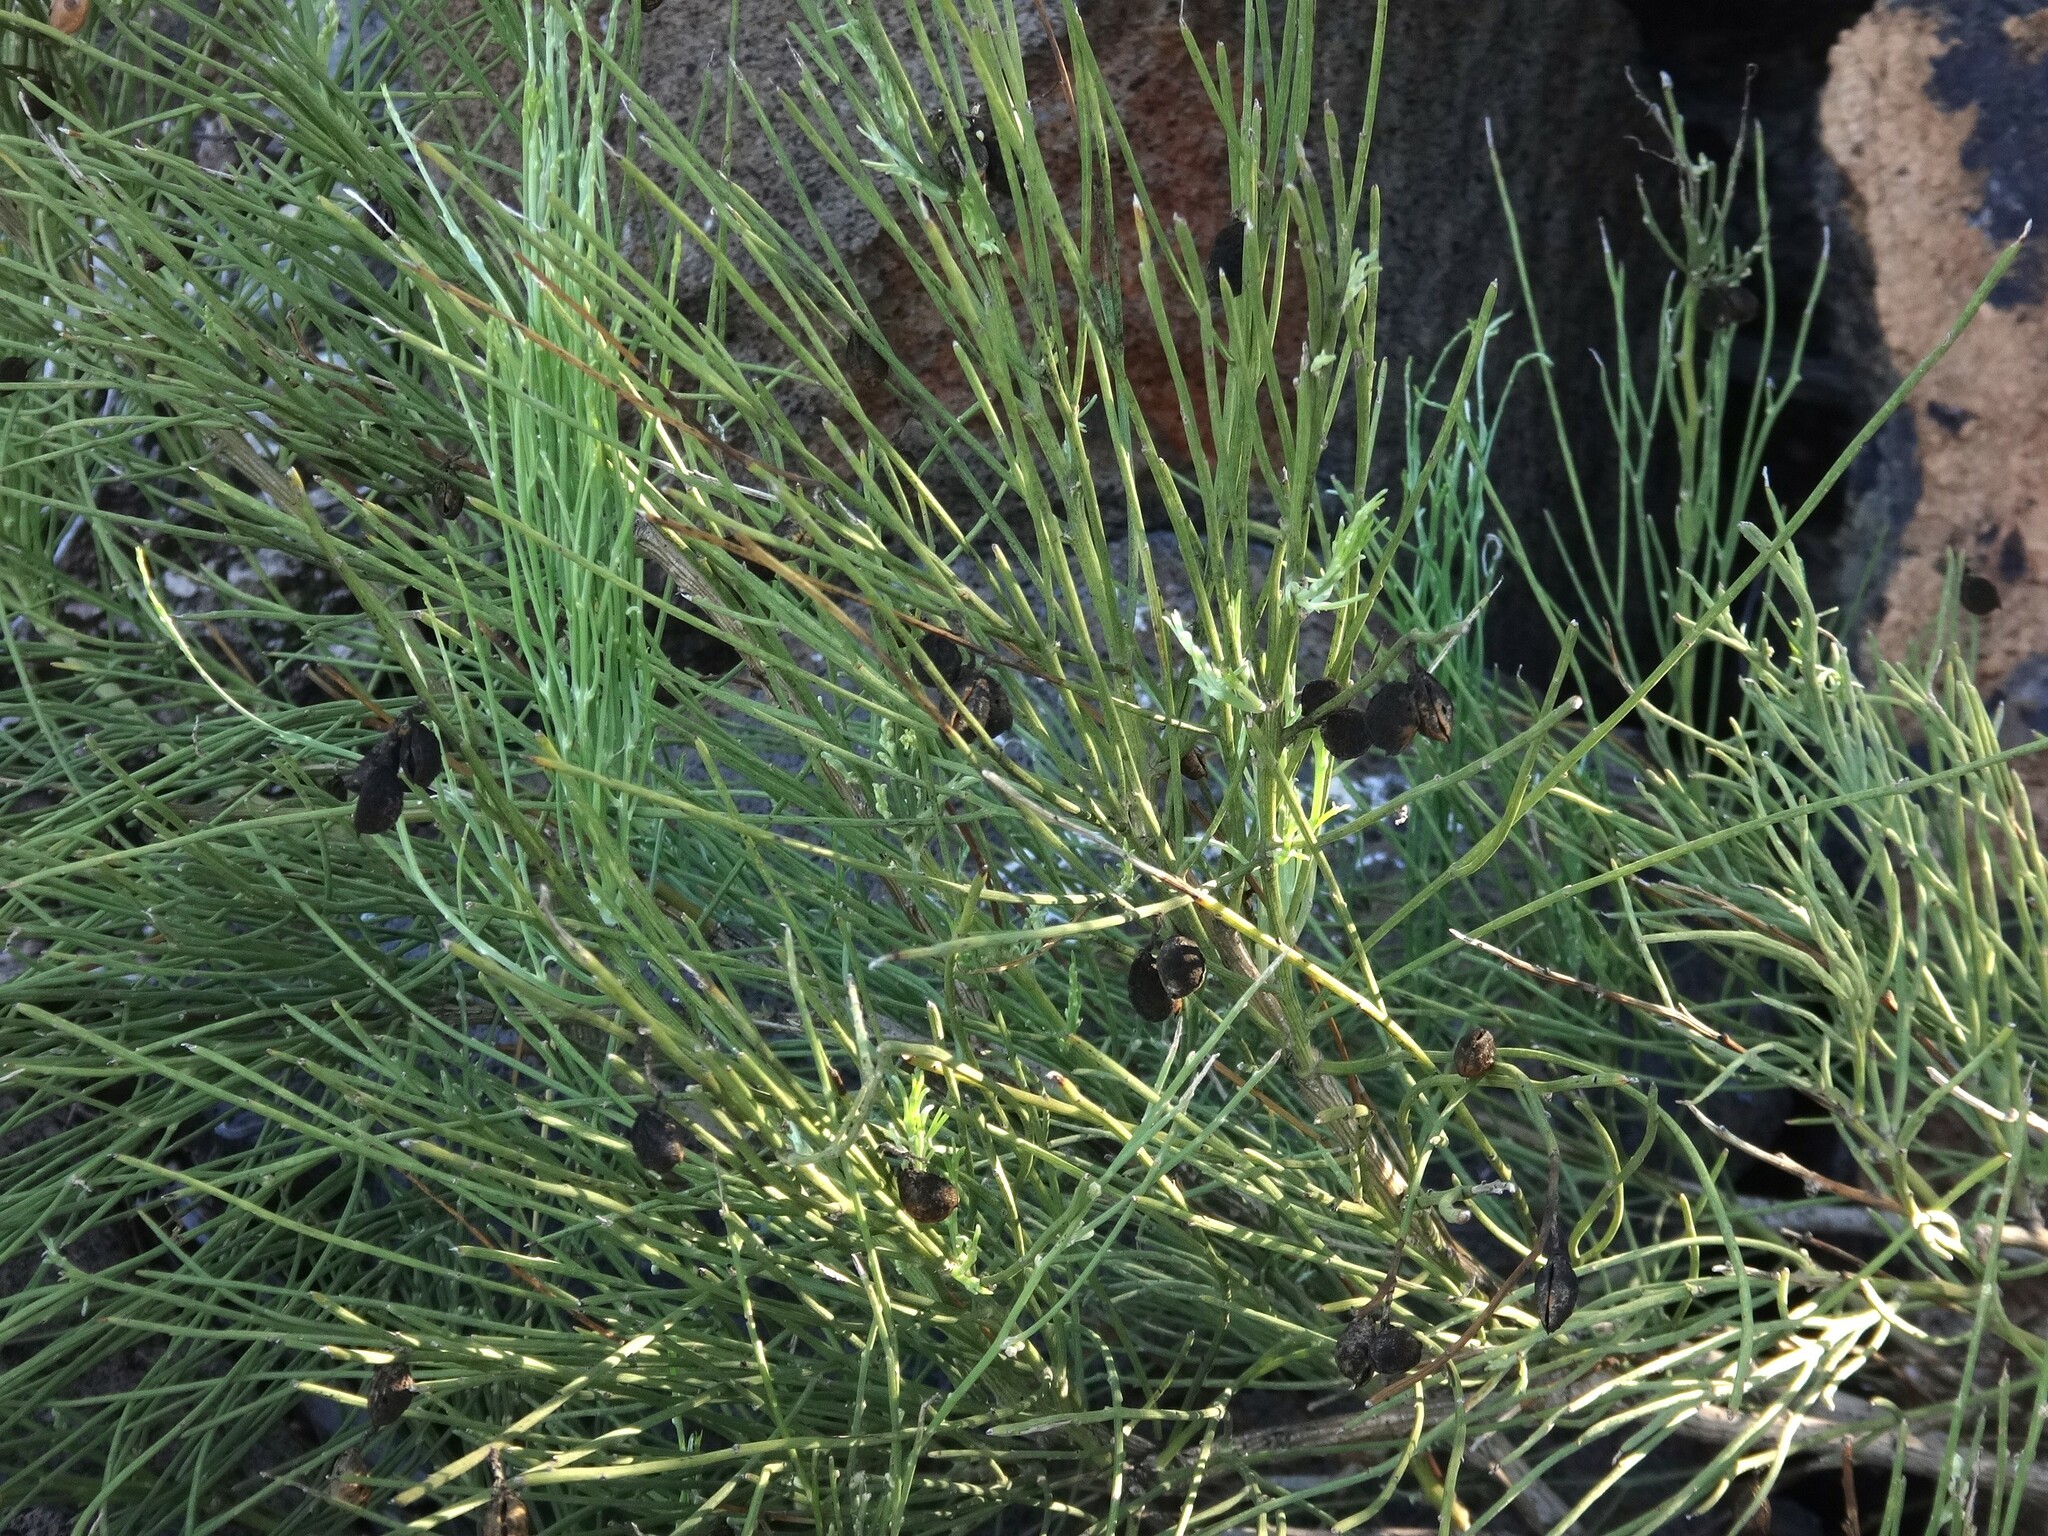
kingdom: Plantae
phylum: Tracheophyta
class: Magnoliopsida
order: Fabales
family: Fabaceae
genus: Retama
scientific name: Retama rhodorhizoides
